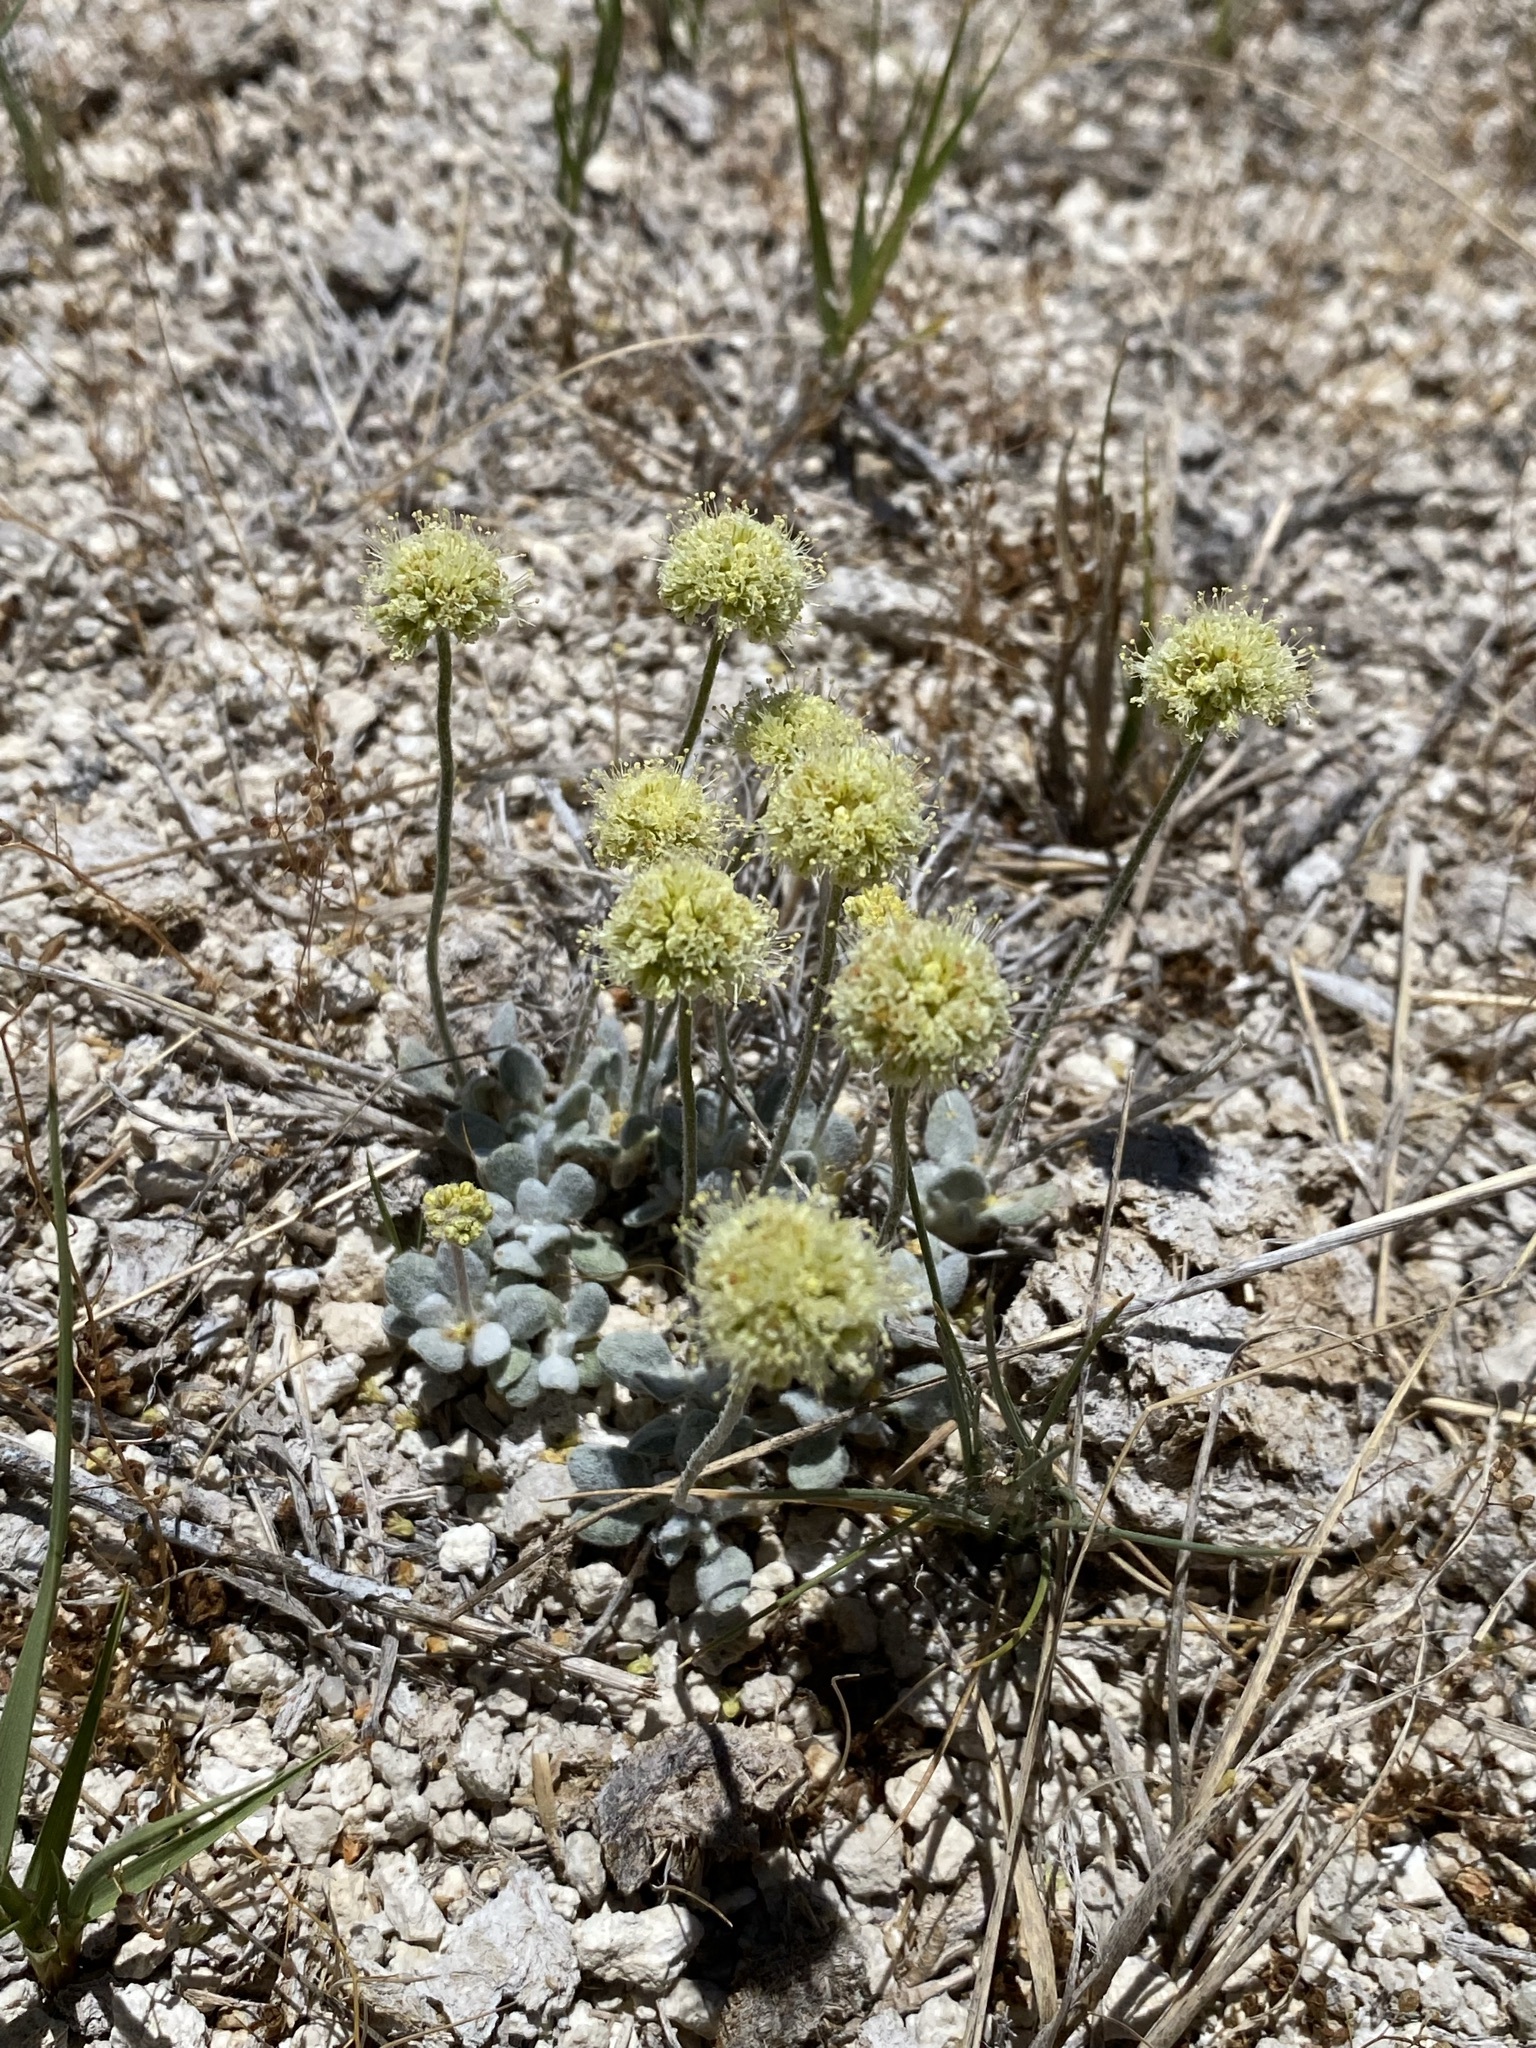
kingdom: Plantae
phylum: Tracheophyta
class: Magnoliopsida
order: Caryophyllales
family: Polygonaceae
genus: Eriogonum
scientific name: Eriogonum argophyllum
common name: Sulphur hot springs wild buckwheat
